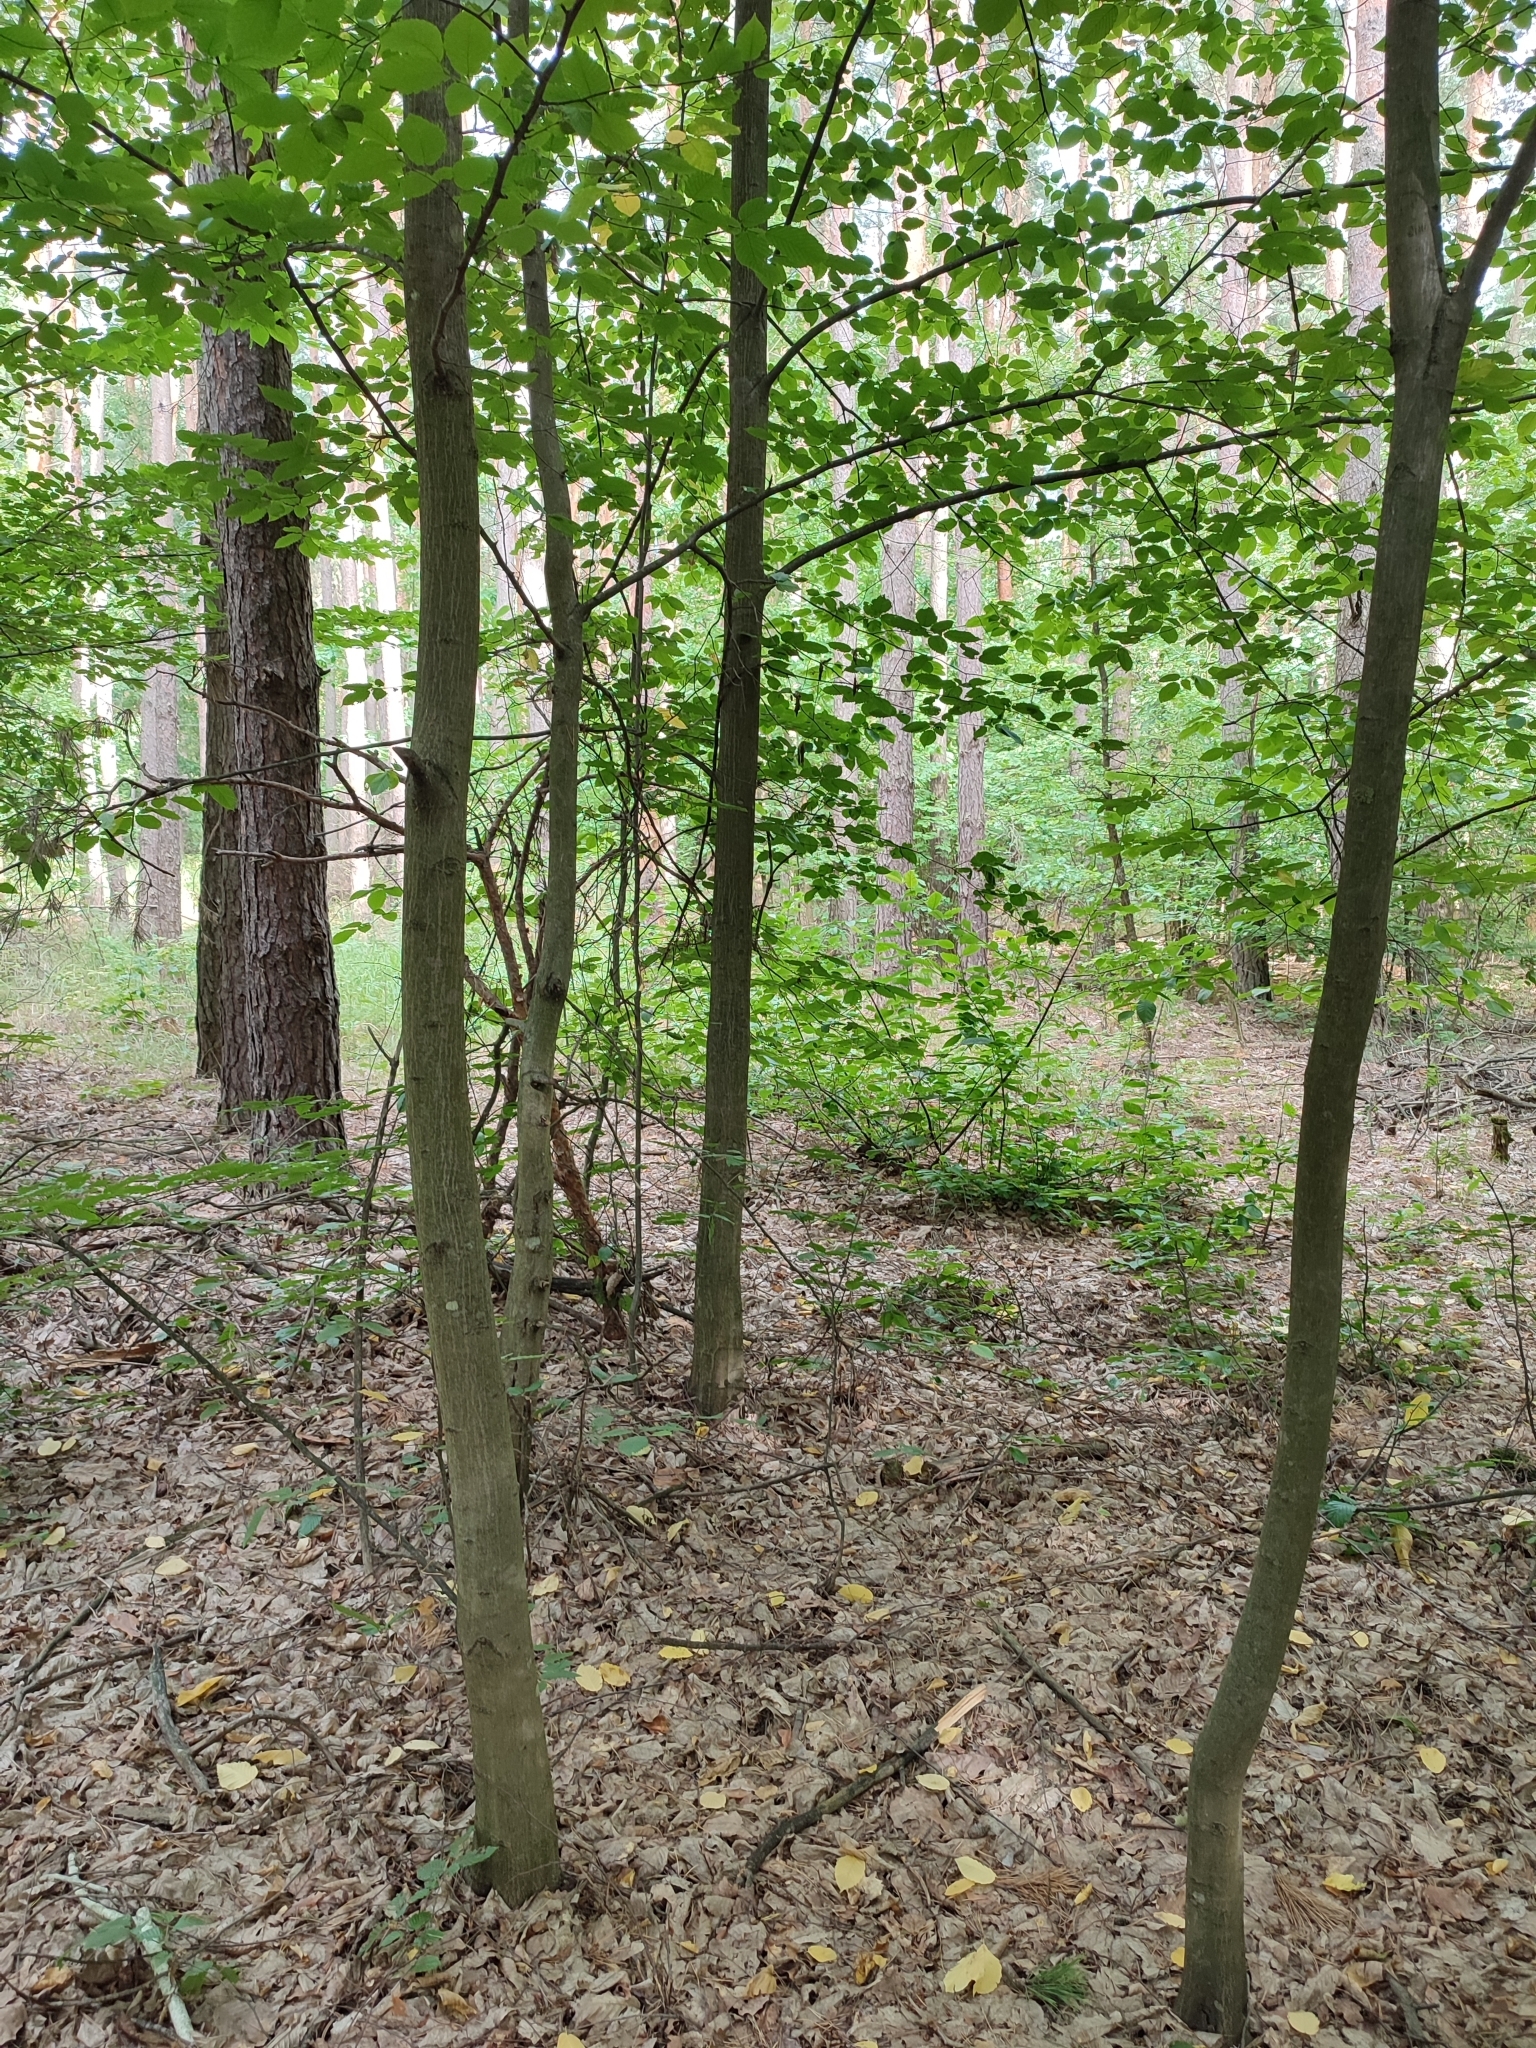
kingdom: Plantae
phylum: Tracheophyta
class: Magnoliopsida
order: Fagales
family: Betulaceae
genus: Carpinus
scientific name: Carpinus betulus
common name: Hornbeam
